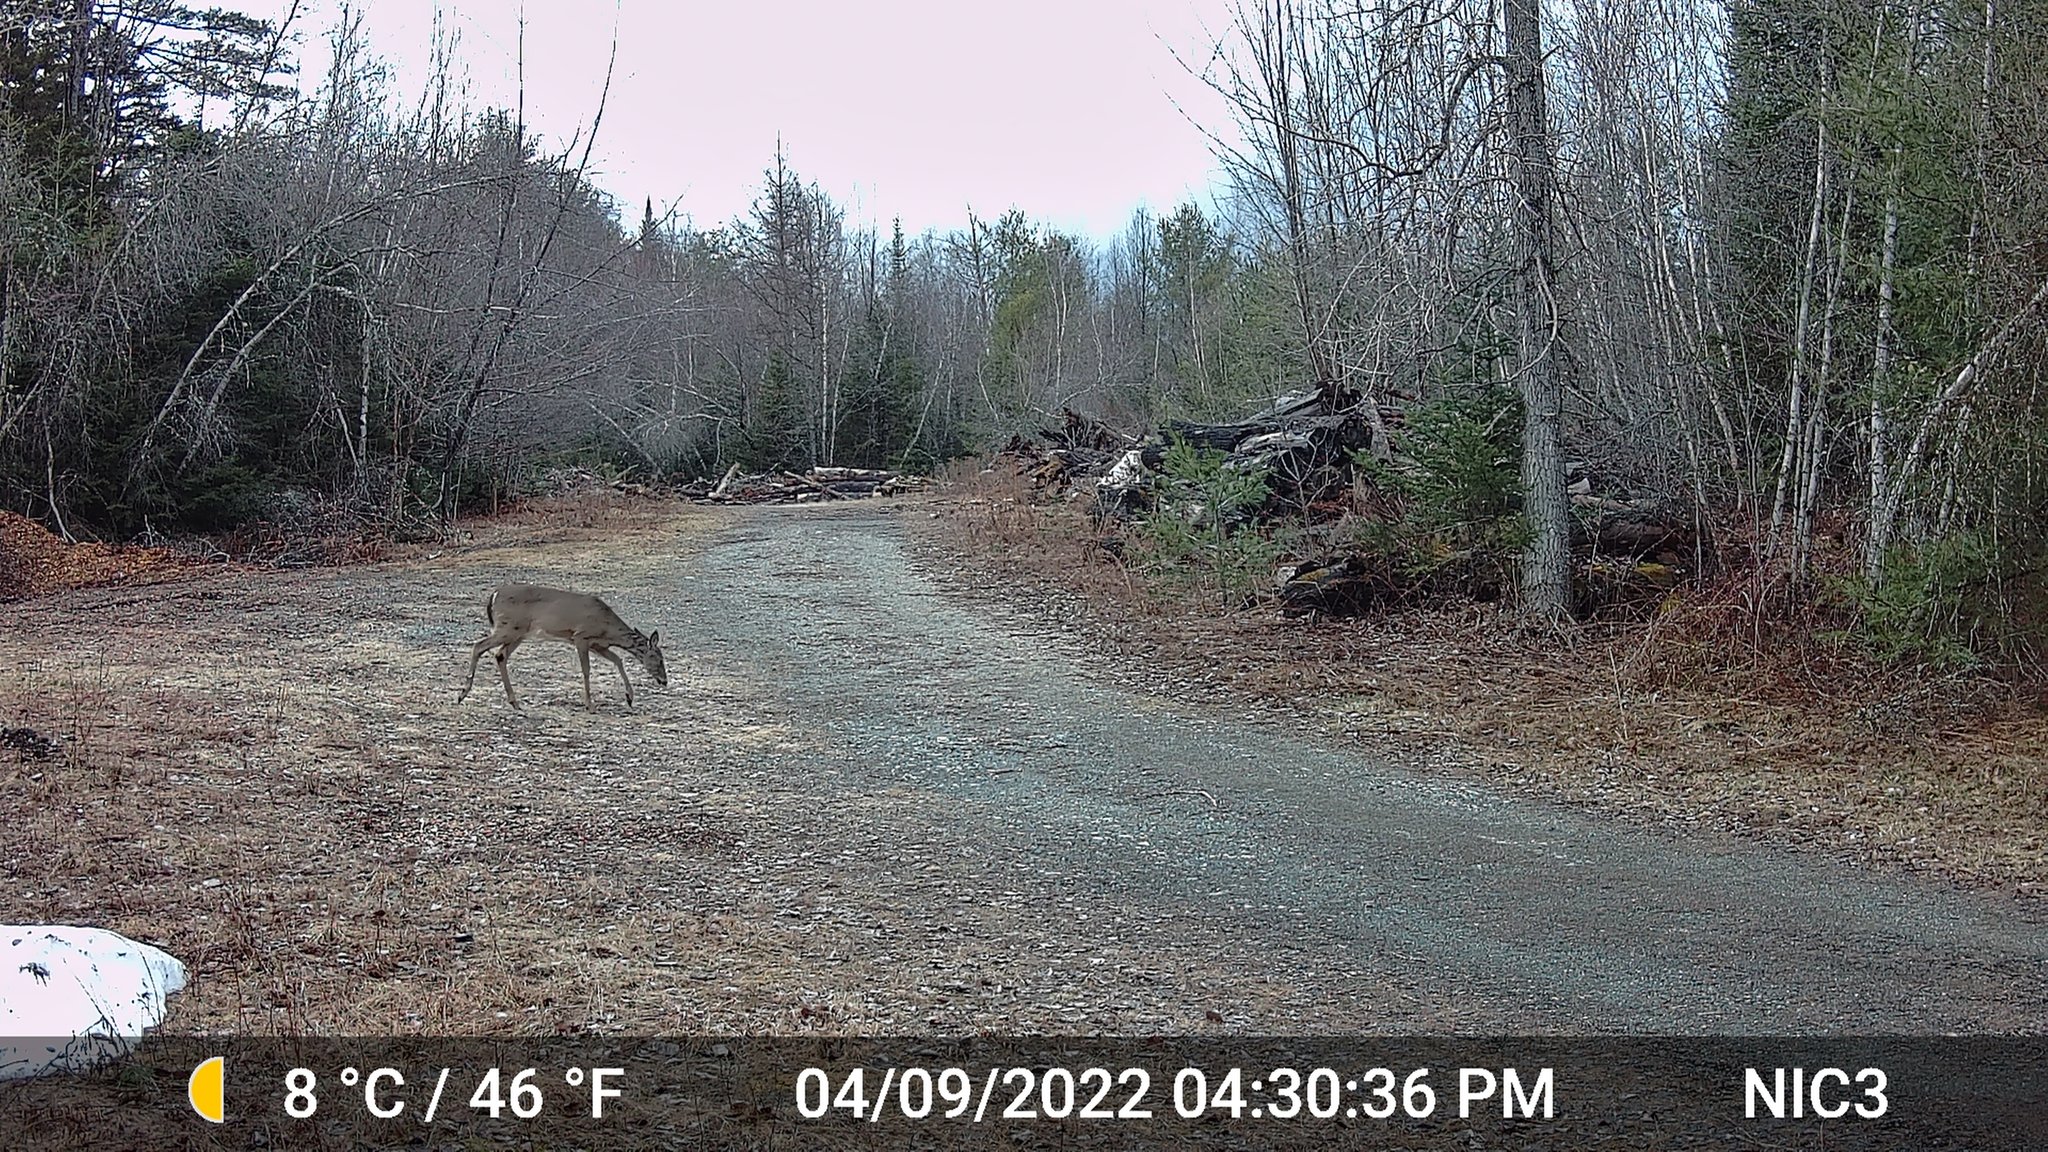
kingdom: Animalia
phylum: Chordata
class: Mammalia
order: Artiodactyla
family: Cervidae
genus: Odocoileus
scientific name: Odocoileus virginianus
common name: White-tailed deer
